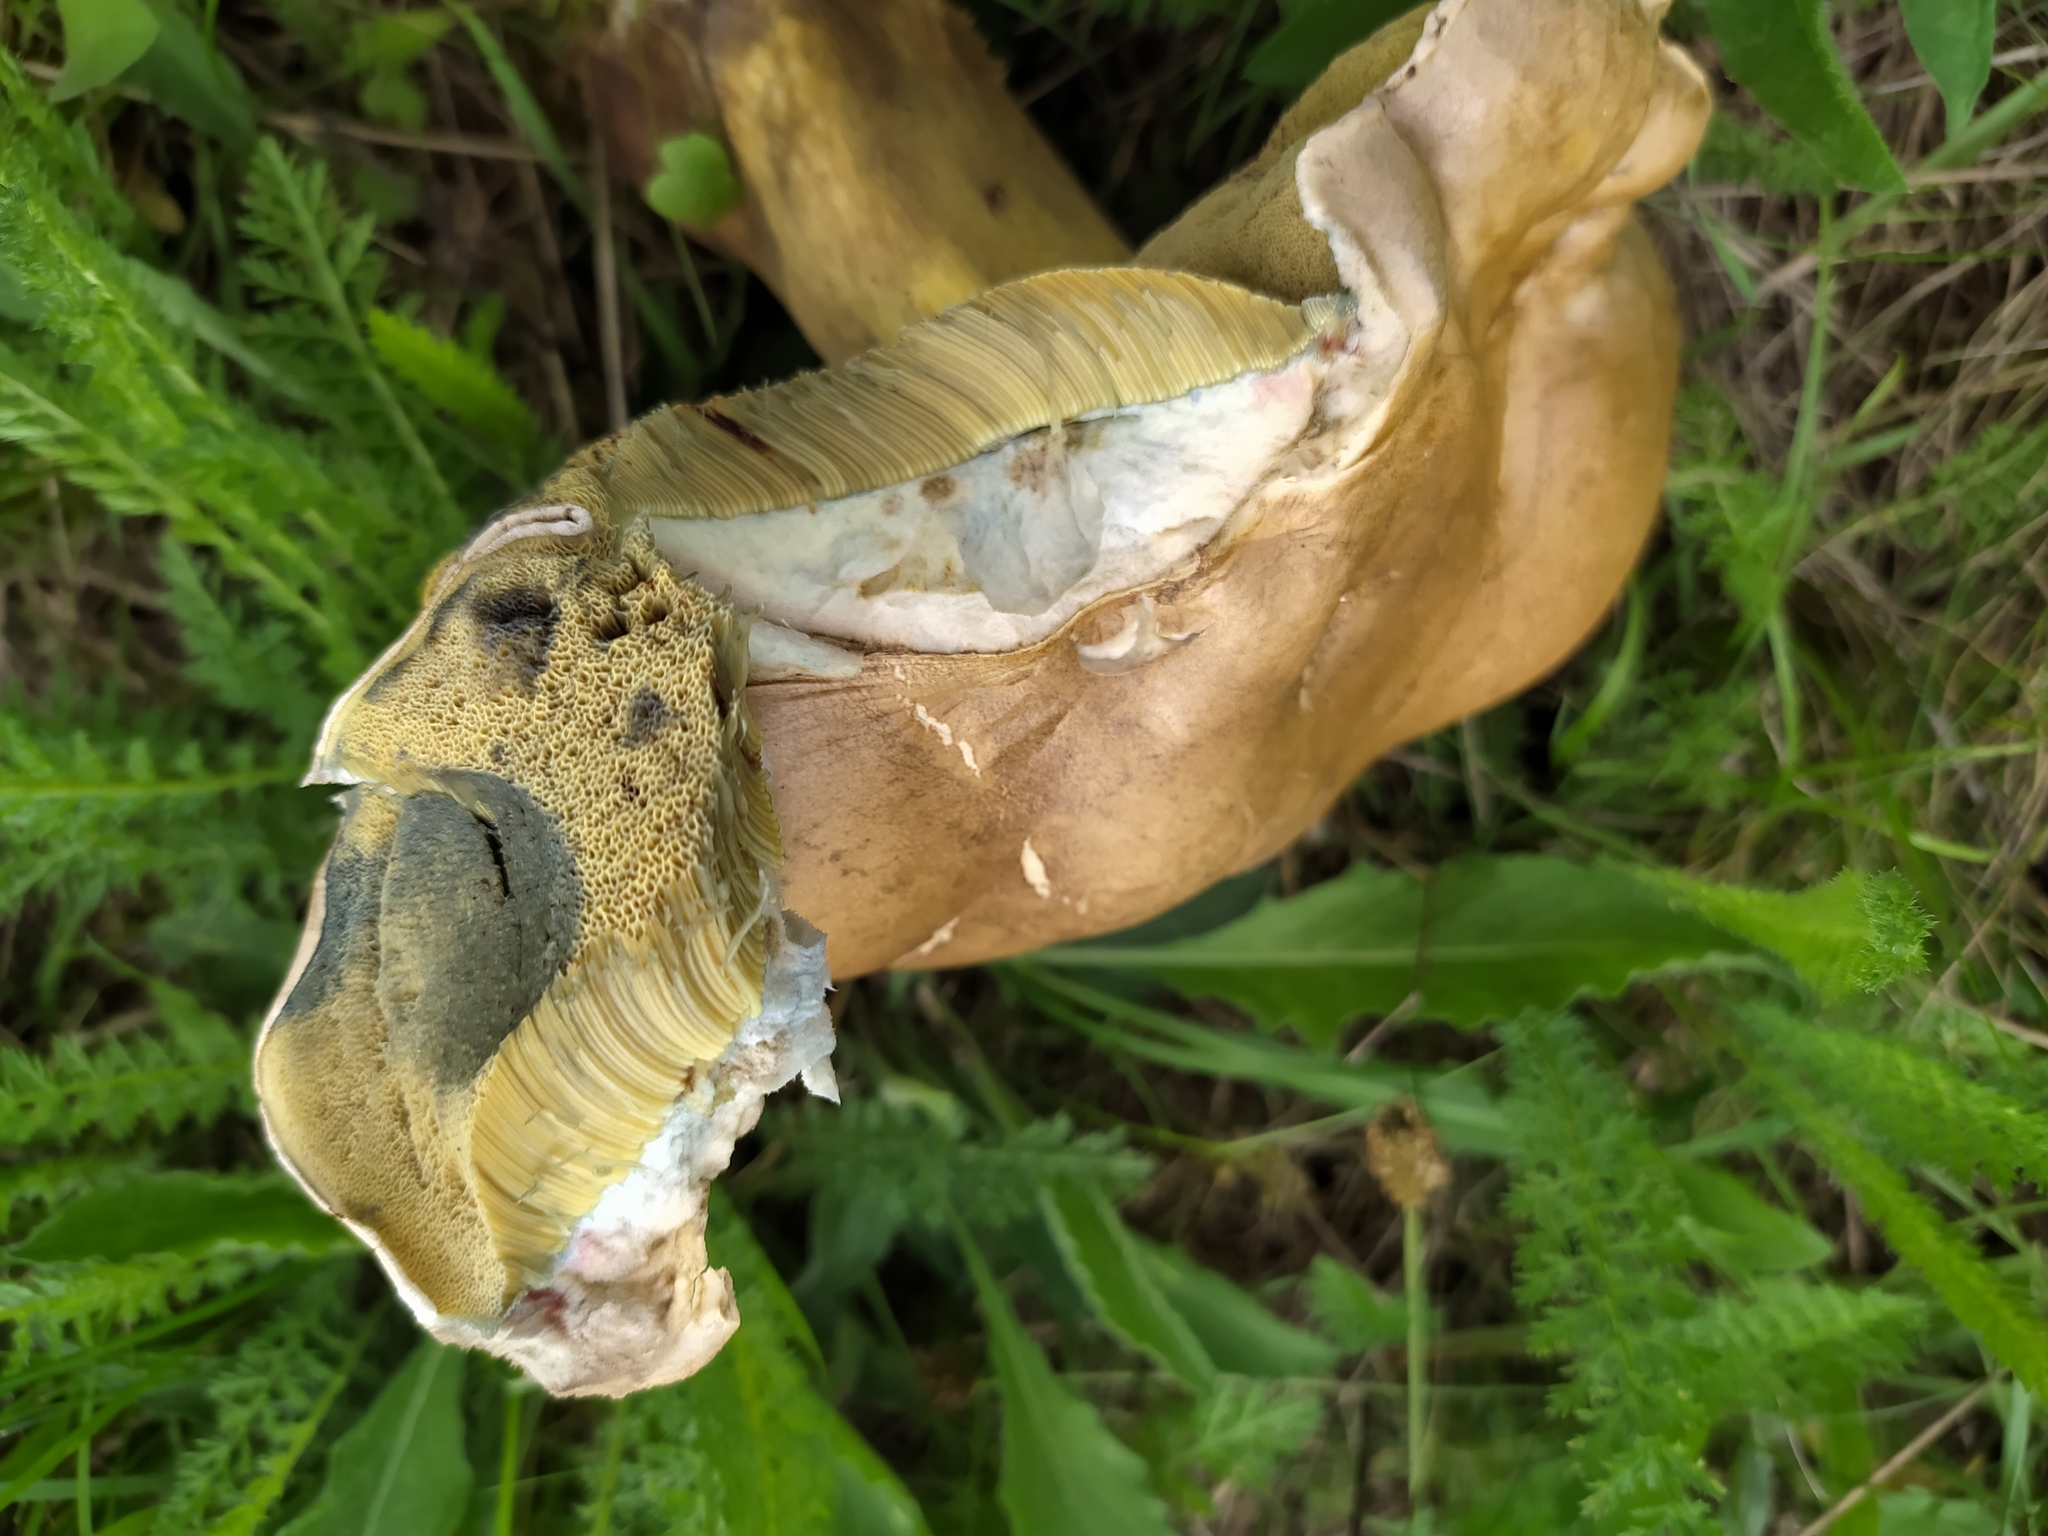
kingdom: Fungi
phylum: Basidiomycota
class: Agaricomycetes
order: Boletales
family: Boletaceae
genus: Caloboletus
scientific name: Caloboletus radicans
